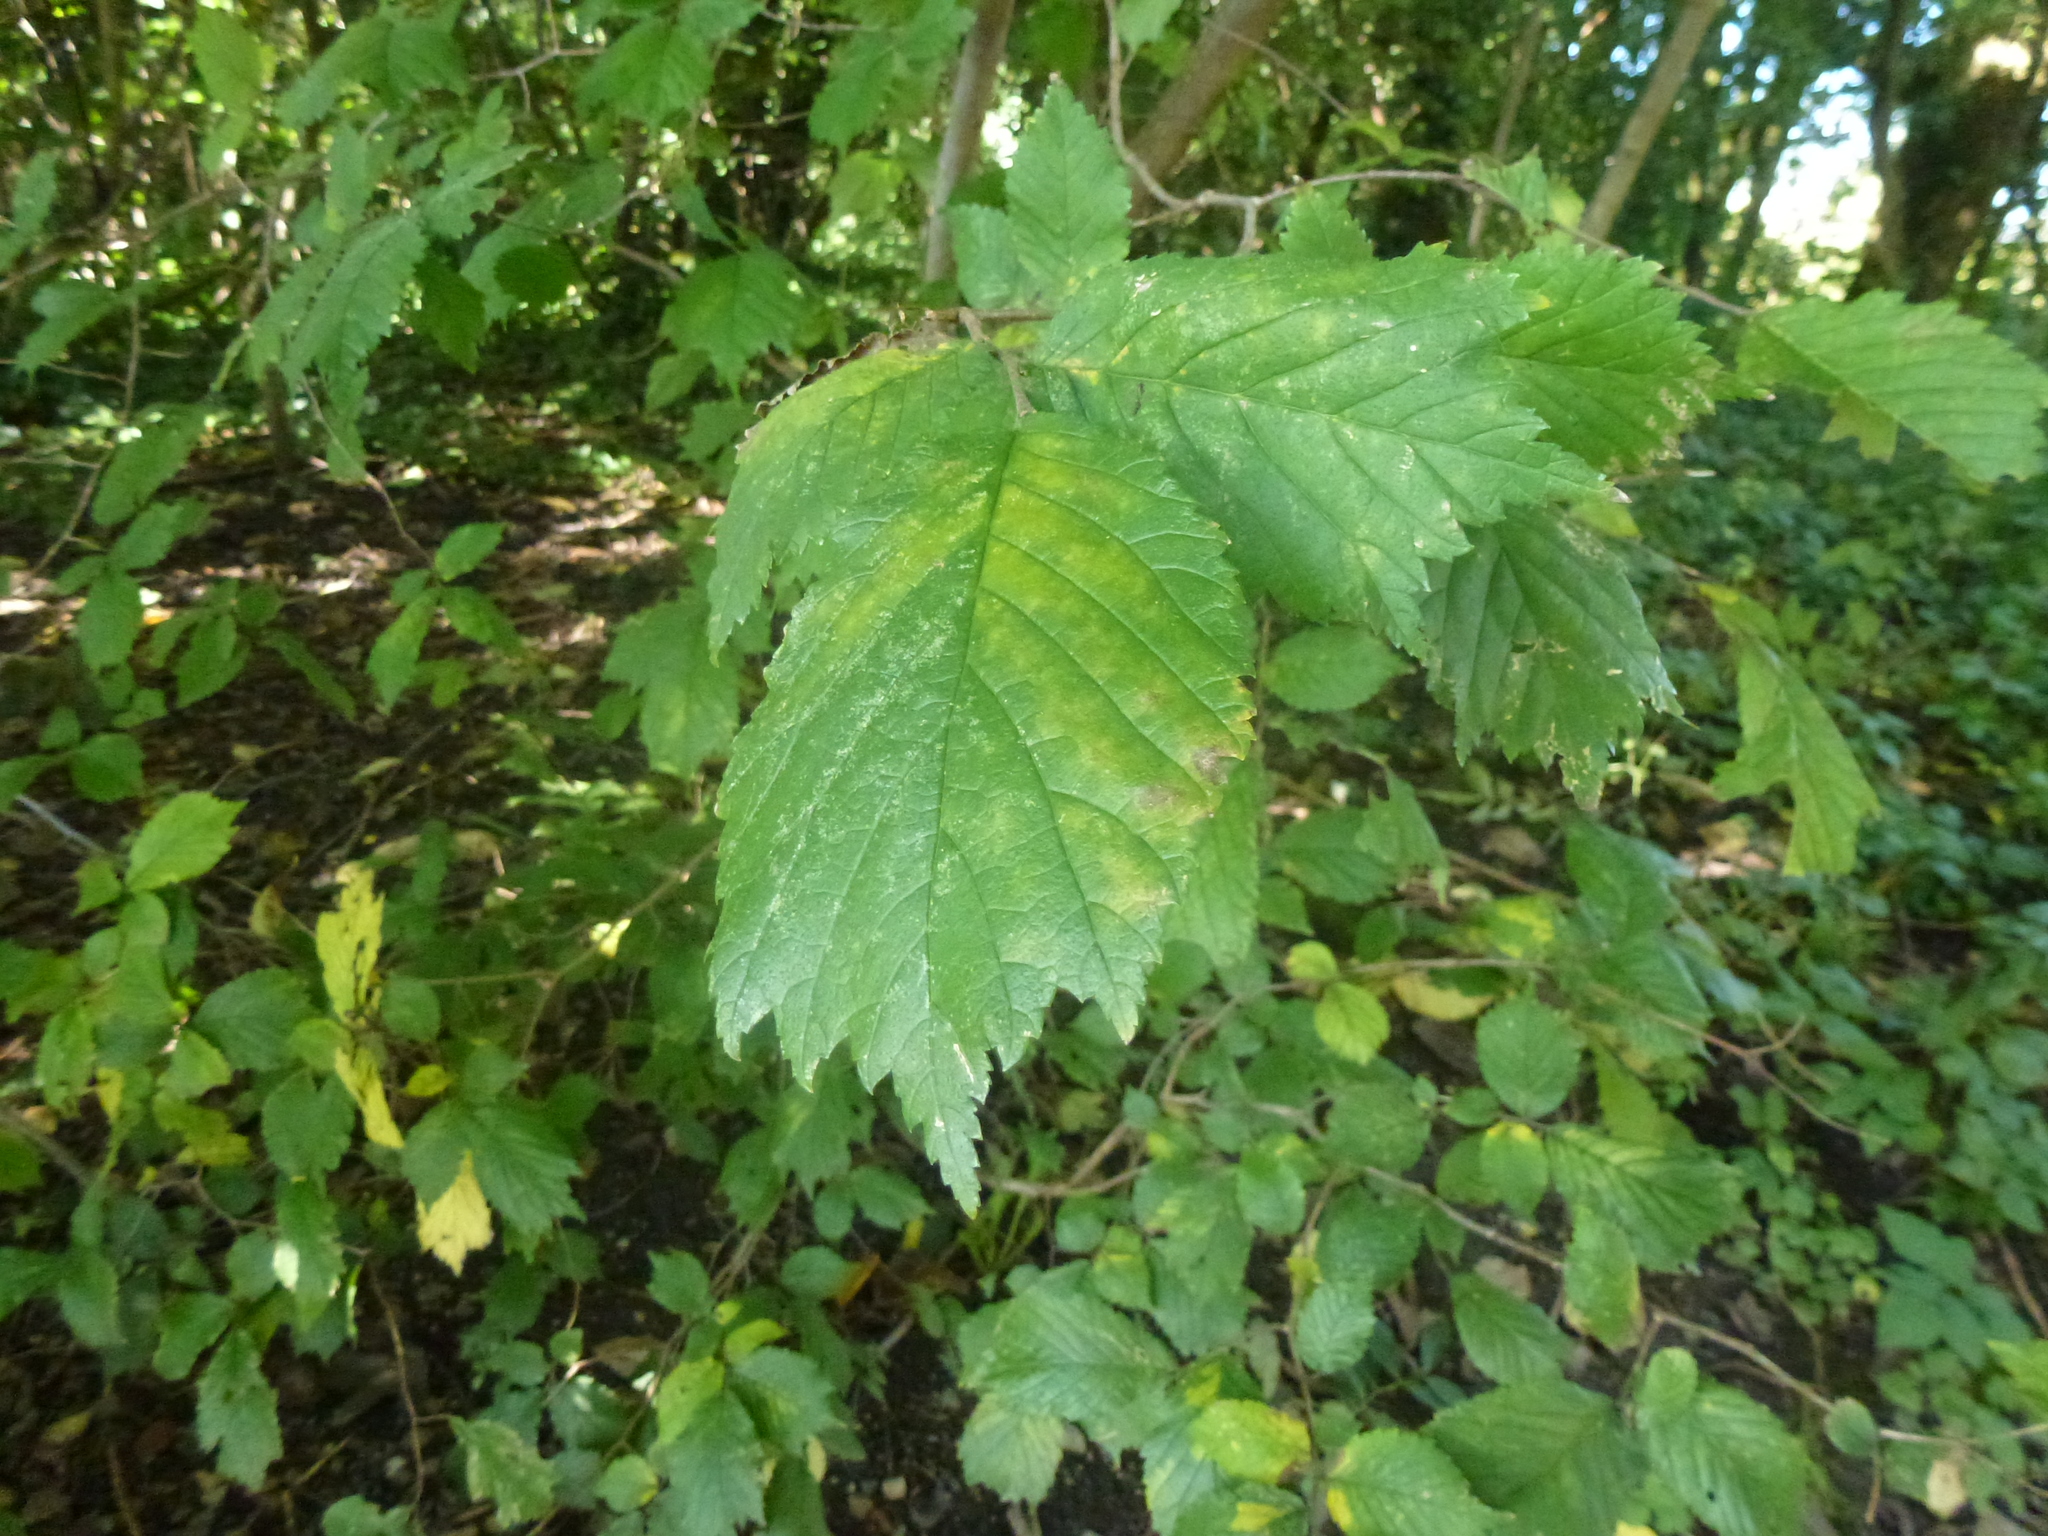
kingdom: Plantae
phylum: Tracheophyta
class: Magnoliopsida
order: Rosales
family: Ulmaceae
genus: Ulmus
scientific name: Ulmus glabra
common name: Wych elm
